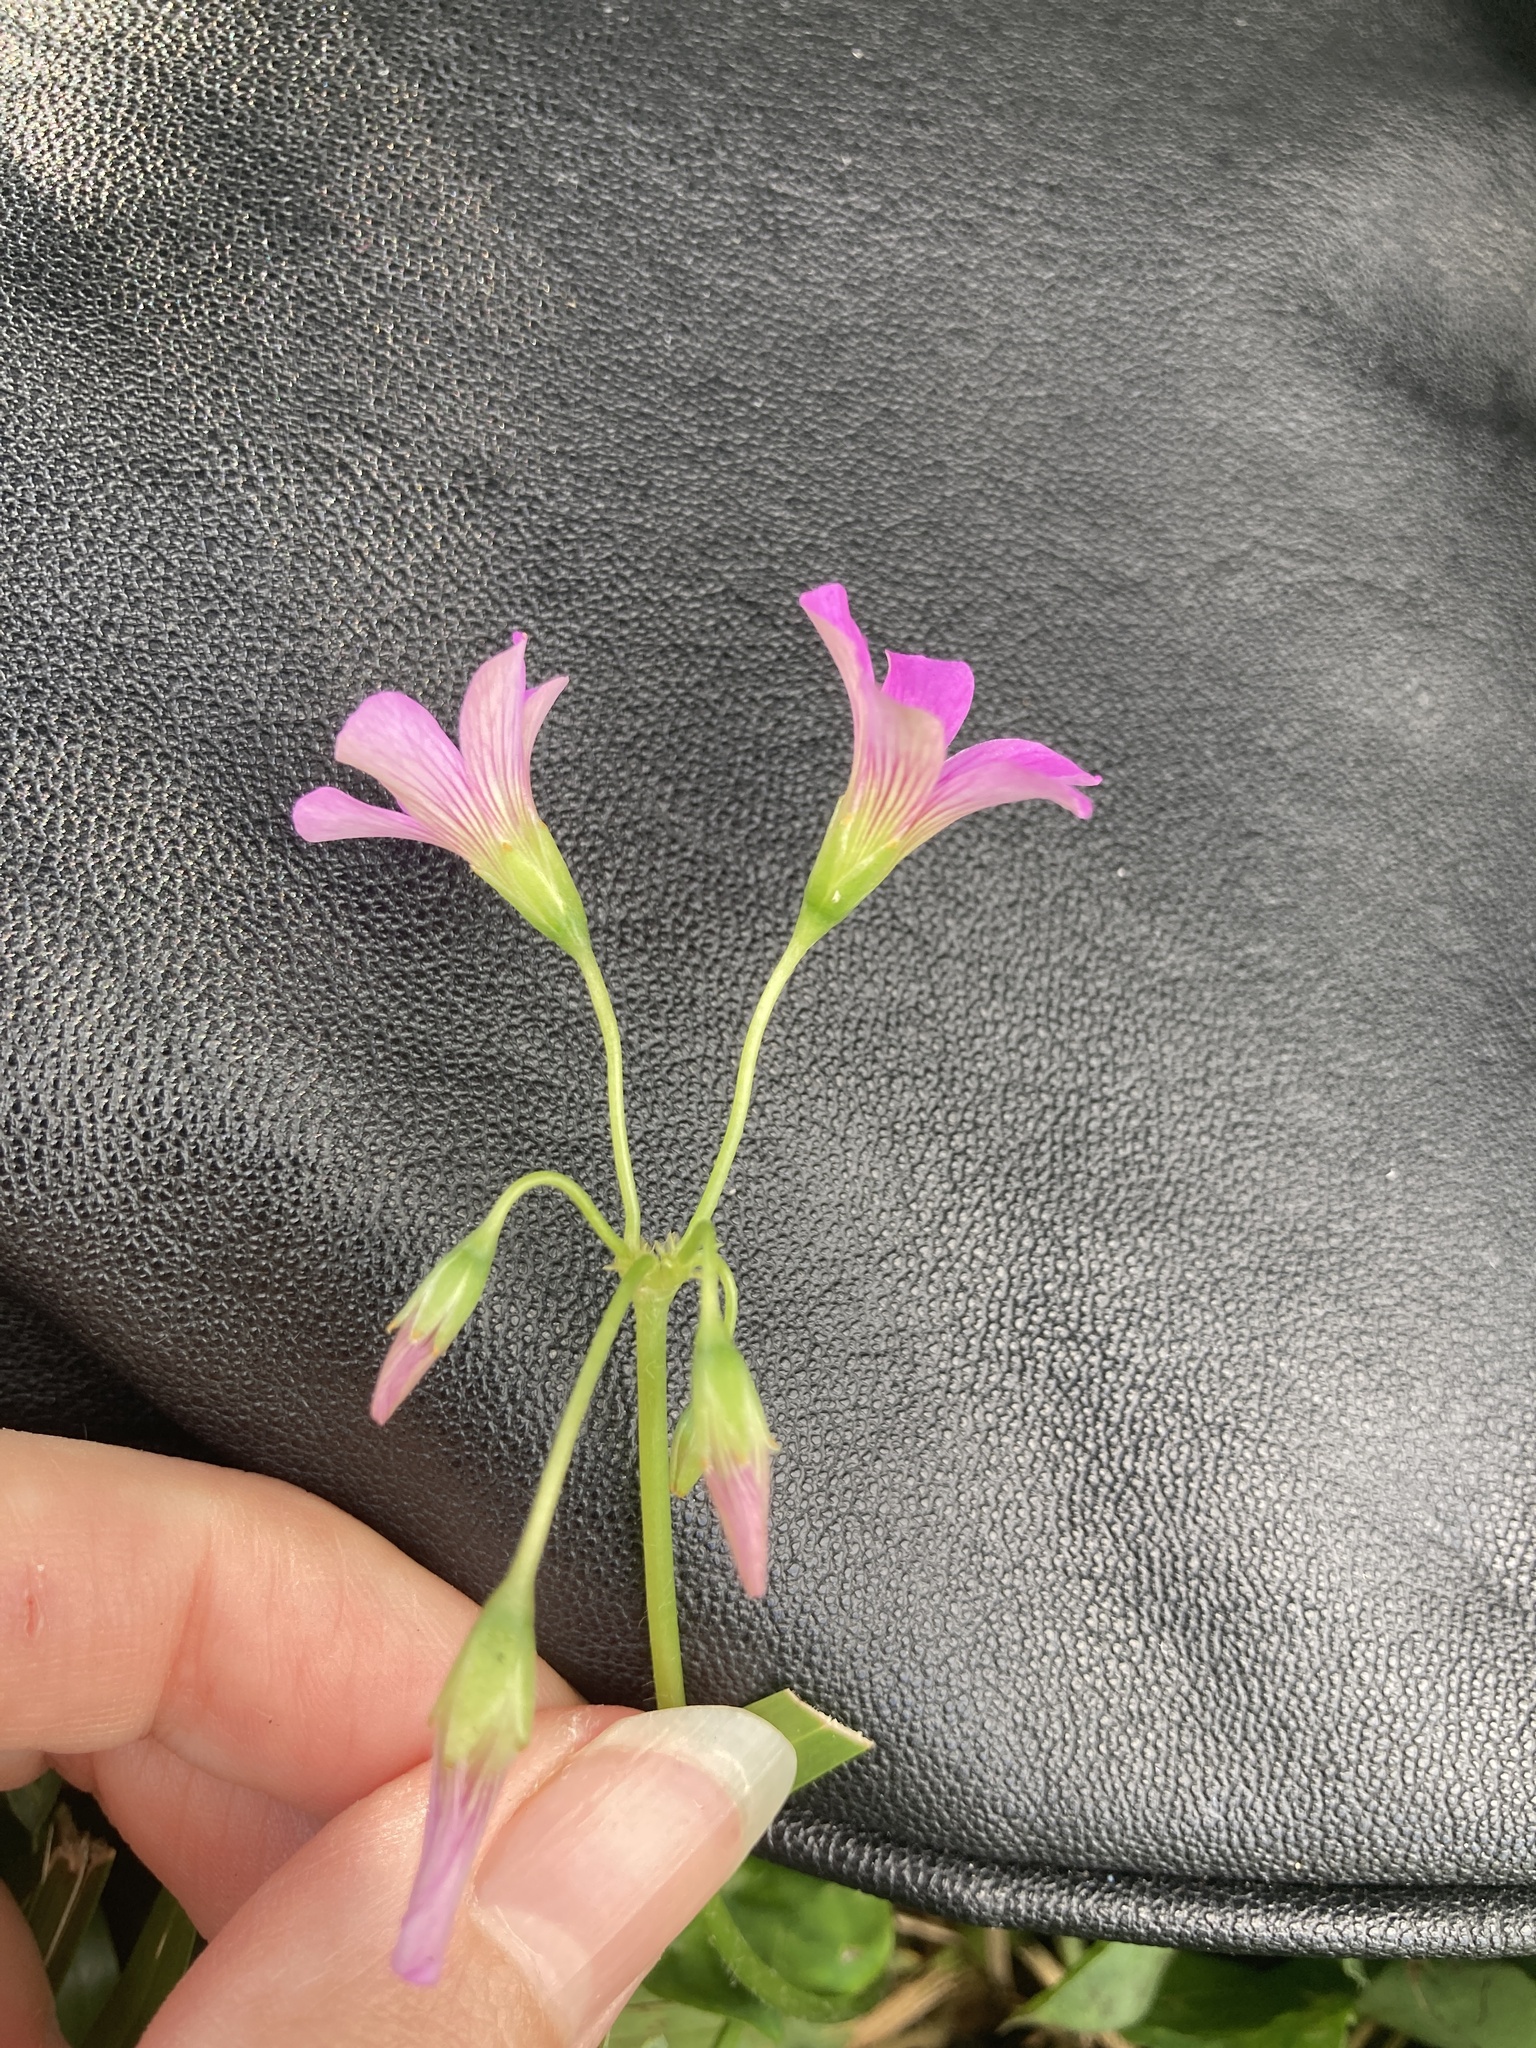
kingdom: Plantae
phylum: Tracheophyta
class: Magnoliopsida
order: Oxalidales
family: Oxalidaceae
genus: Oxalis
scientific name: Oxalis debilis
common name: Large-flowered pink-sorrel
